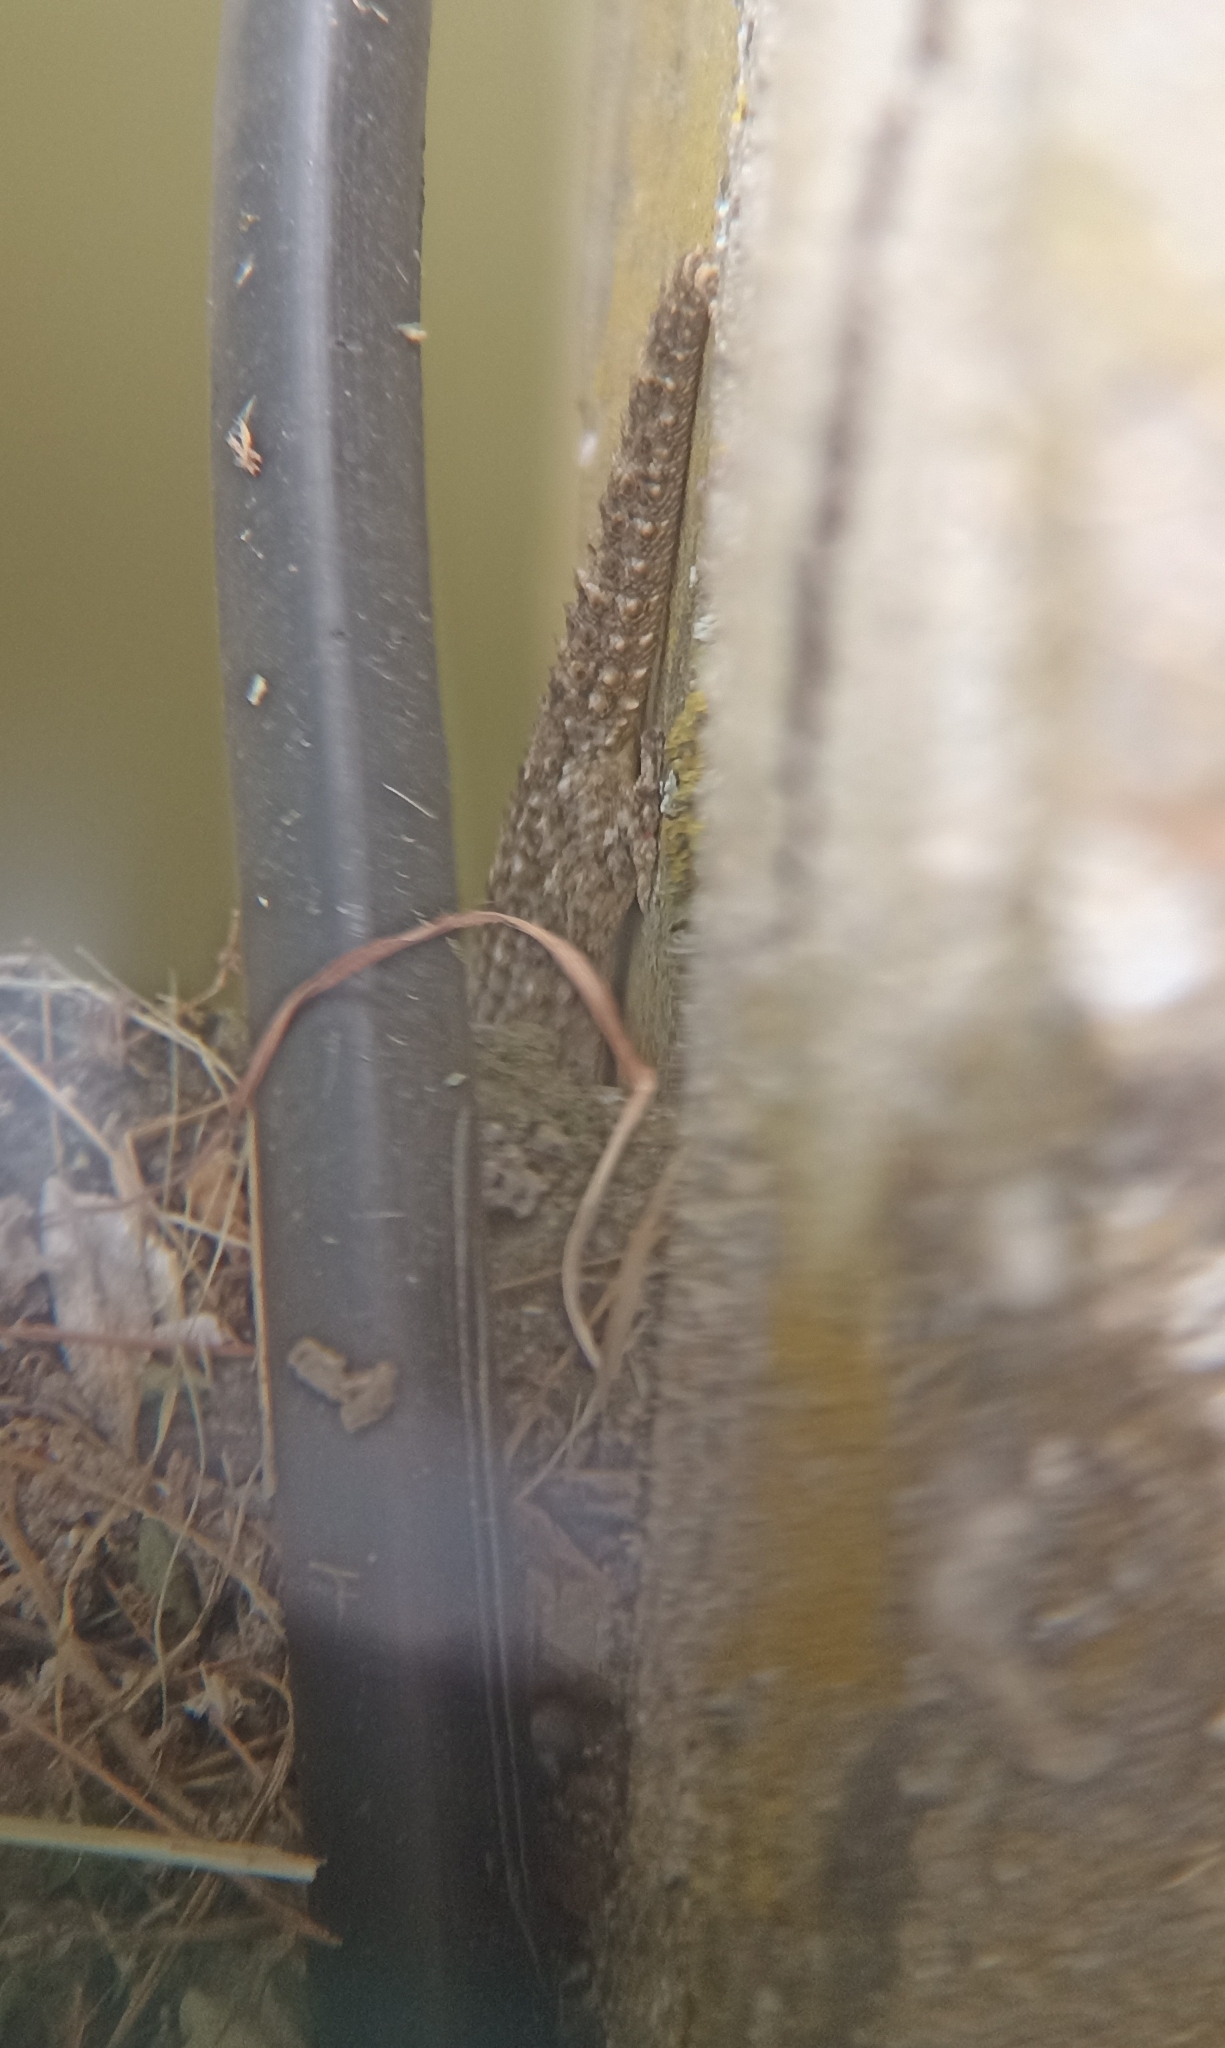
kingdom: Animalia
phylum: Chordata
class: Squamata
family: Phyllodactylidae
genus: Tarentola
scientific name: Tarentola mauritanica
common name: Moorish gecko
